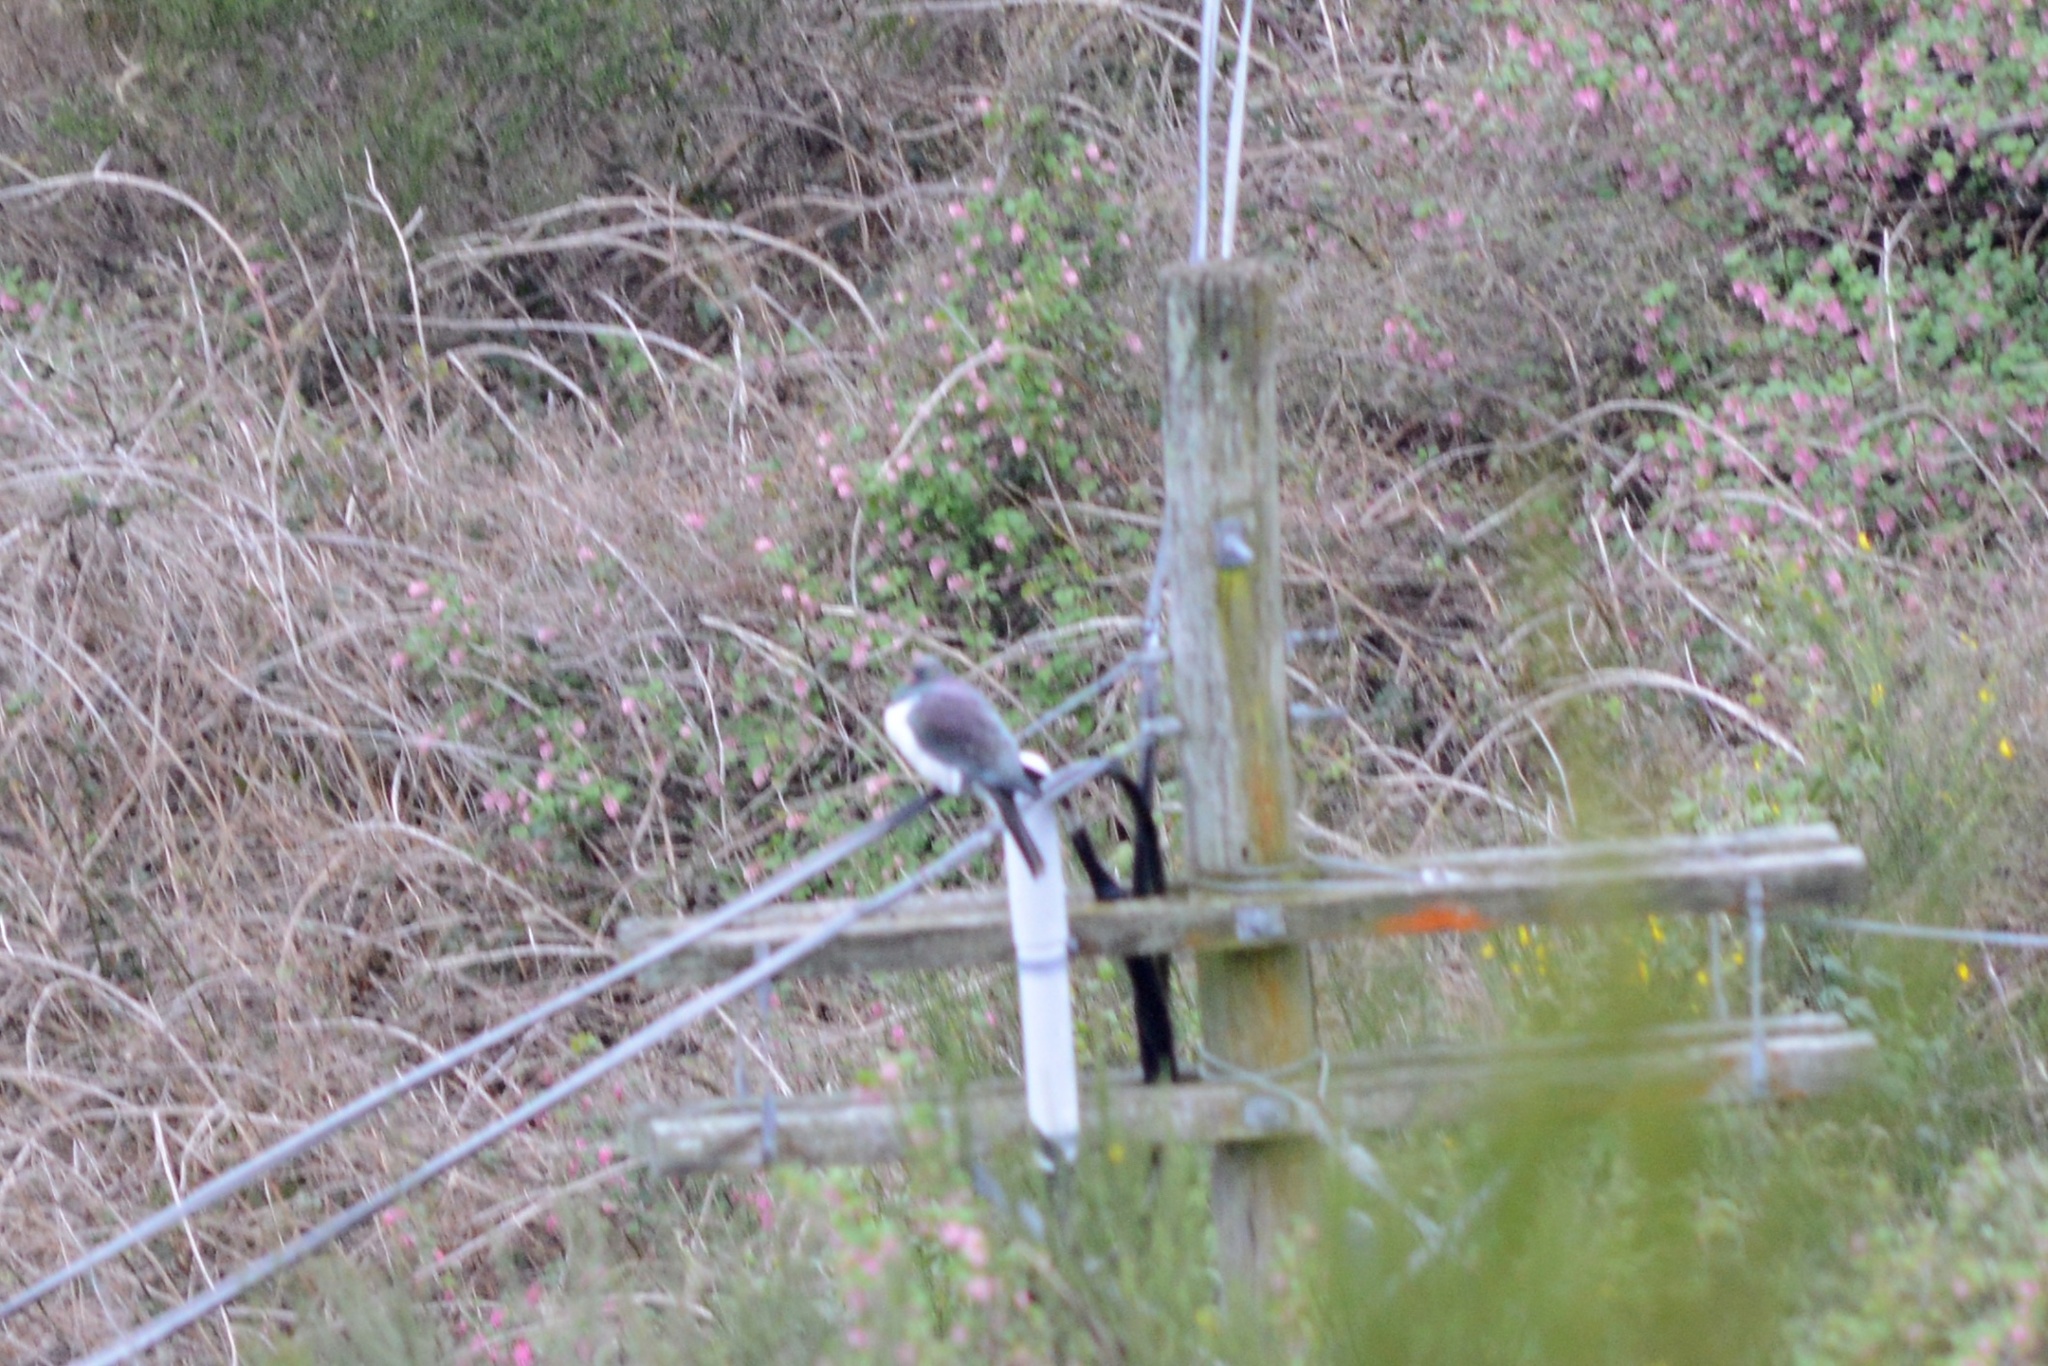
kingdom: Animalia
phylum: Chordata
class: Aves
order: Columbiformes
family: Columbidae
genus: Hemiphaga
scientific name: Hemiphaga novaeseelandiae
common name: New zealand pigeon
